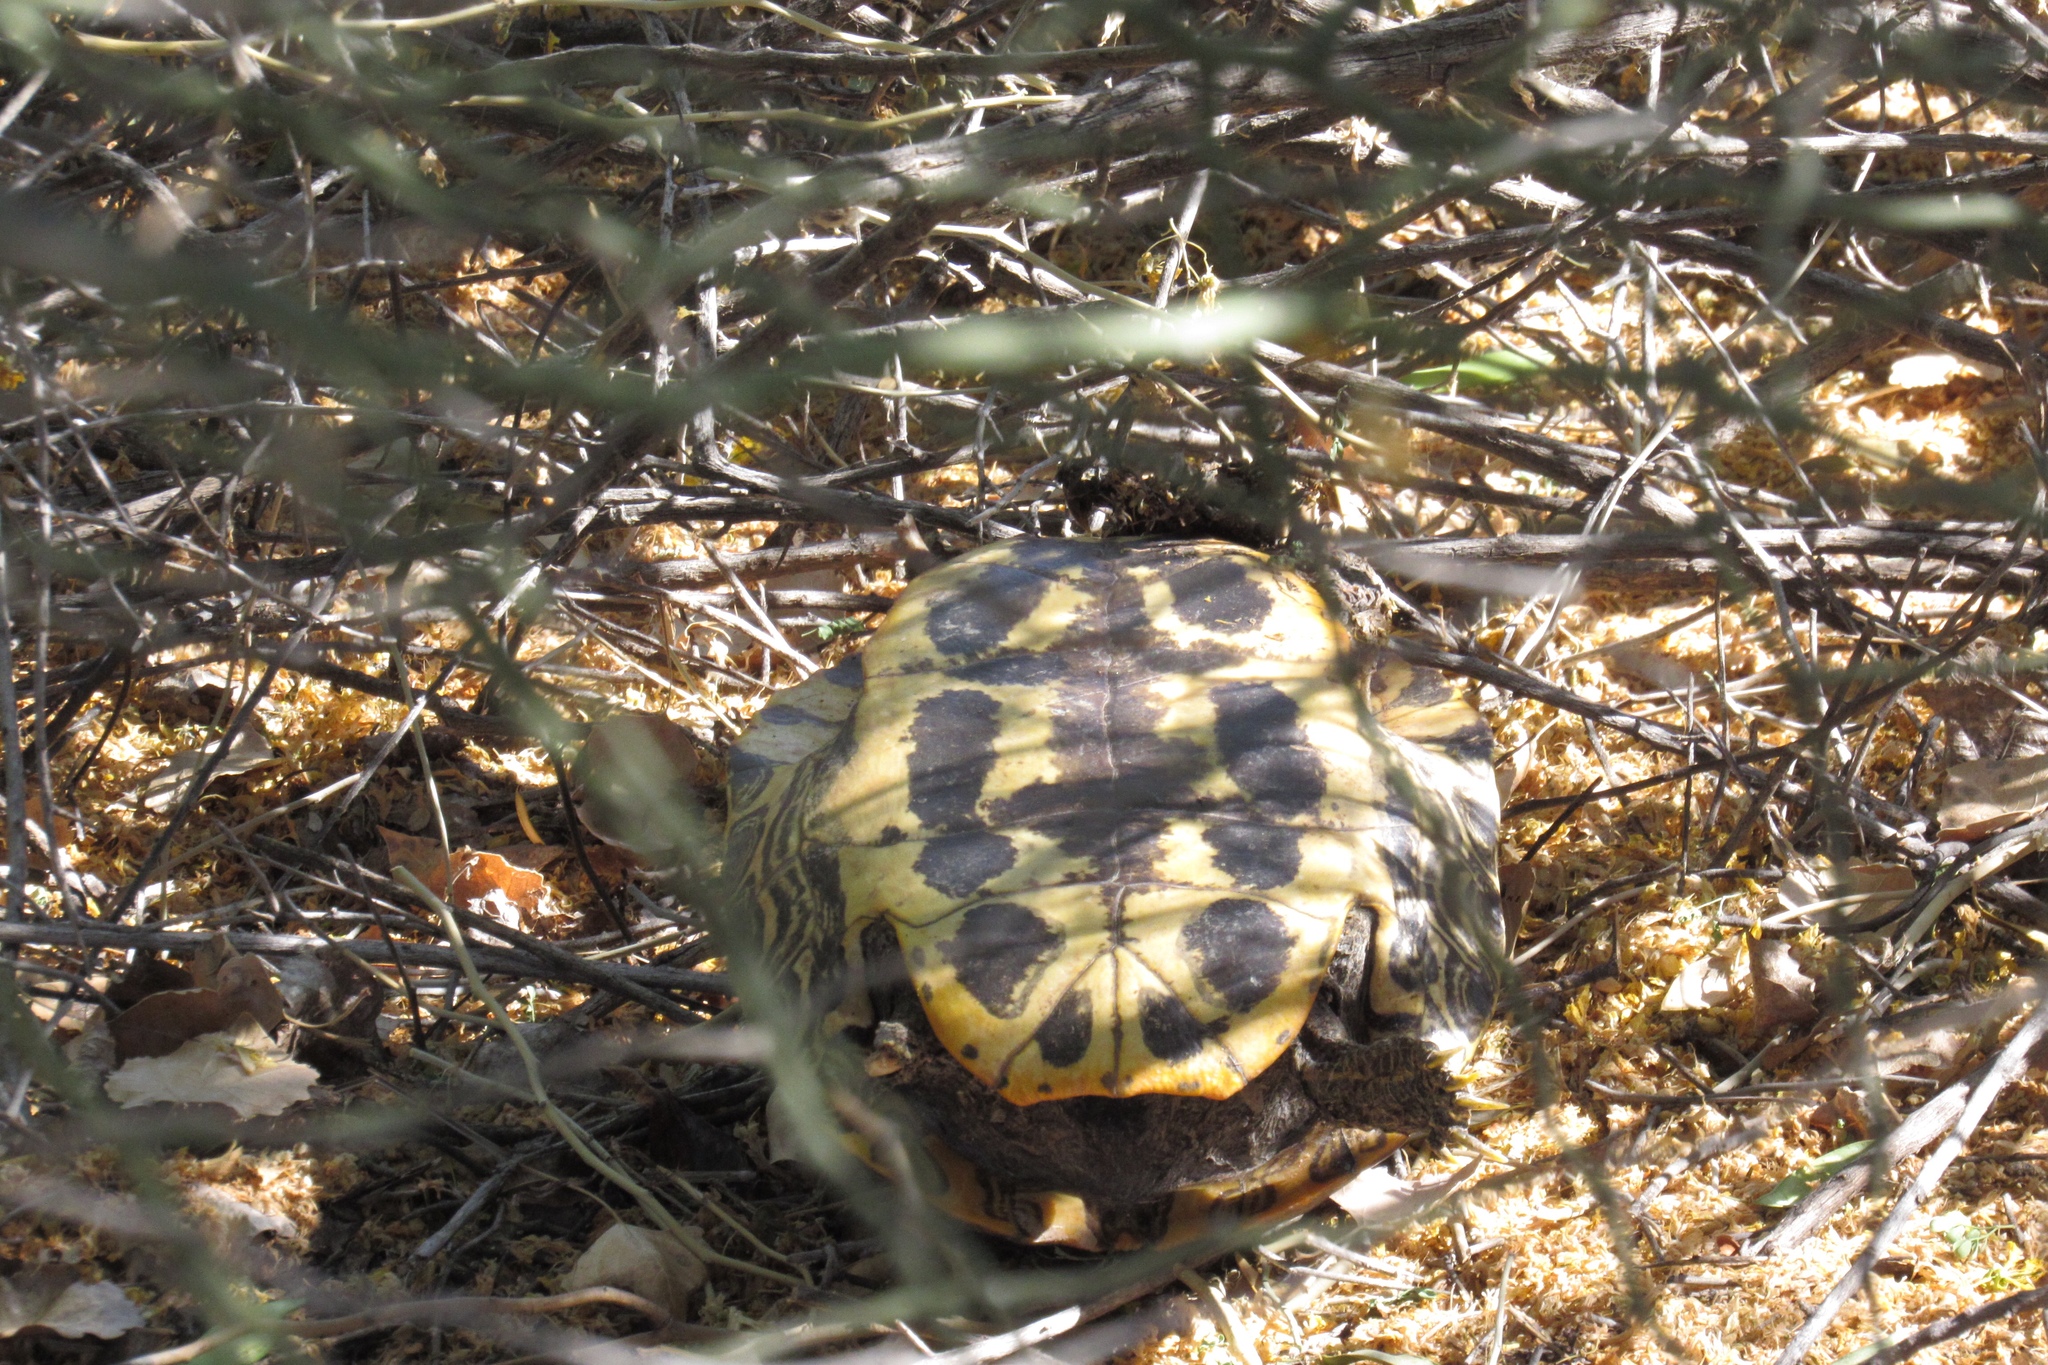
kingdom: Animalia
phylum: Chordata
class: Testudines
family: Emydidae
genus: Trachemys
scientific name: Trachemys scripta
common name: Slider
